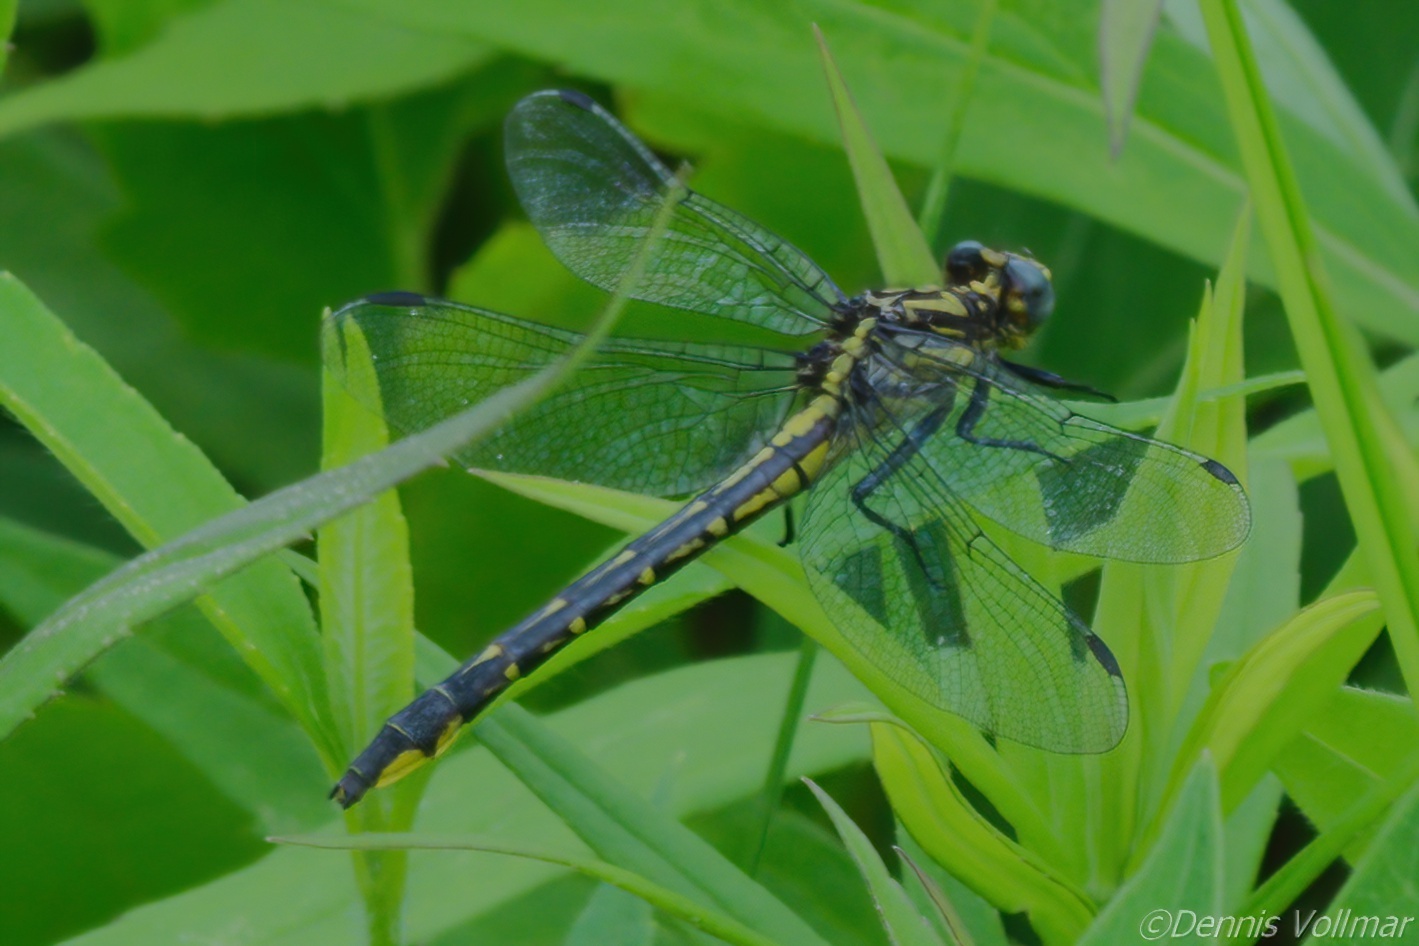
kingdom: Animalia
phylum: Arthropoda
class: Insecta
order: Odonata
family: Gomphidae
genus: Phanogomphus
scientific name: Phanogomphus quadricolor
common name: Rapids clubtail
